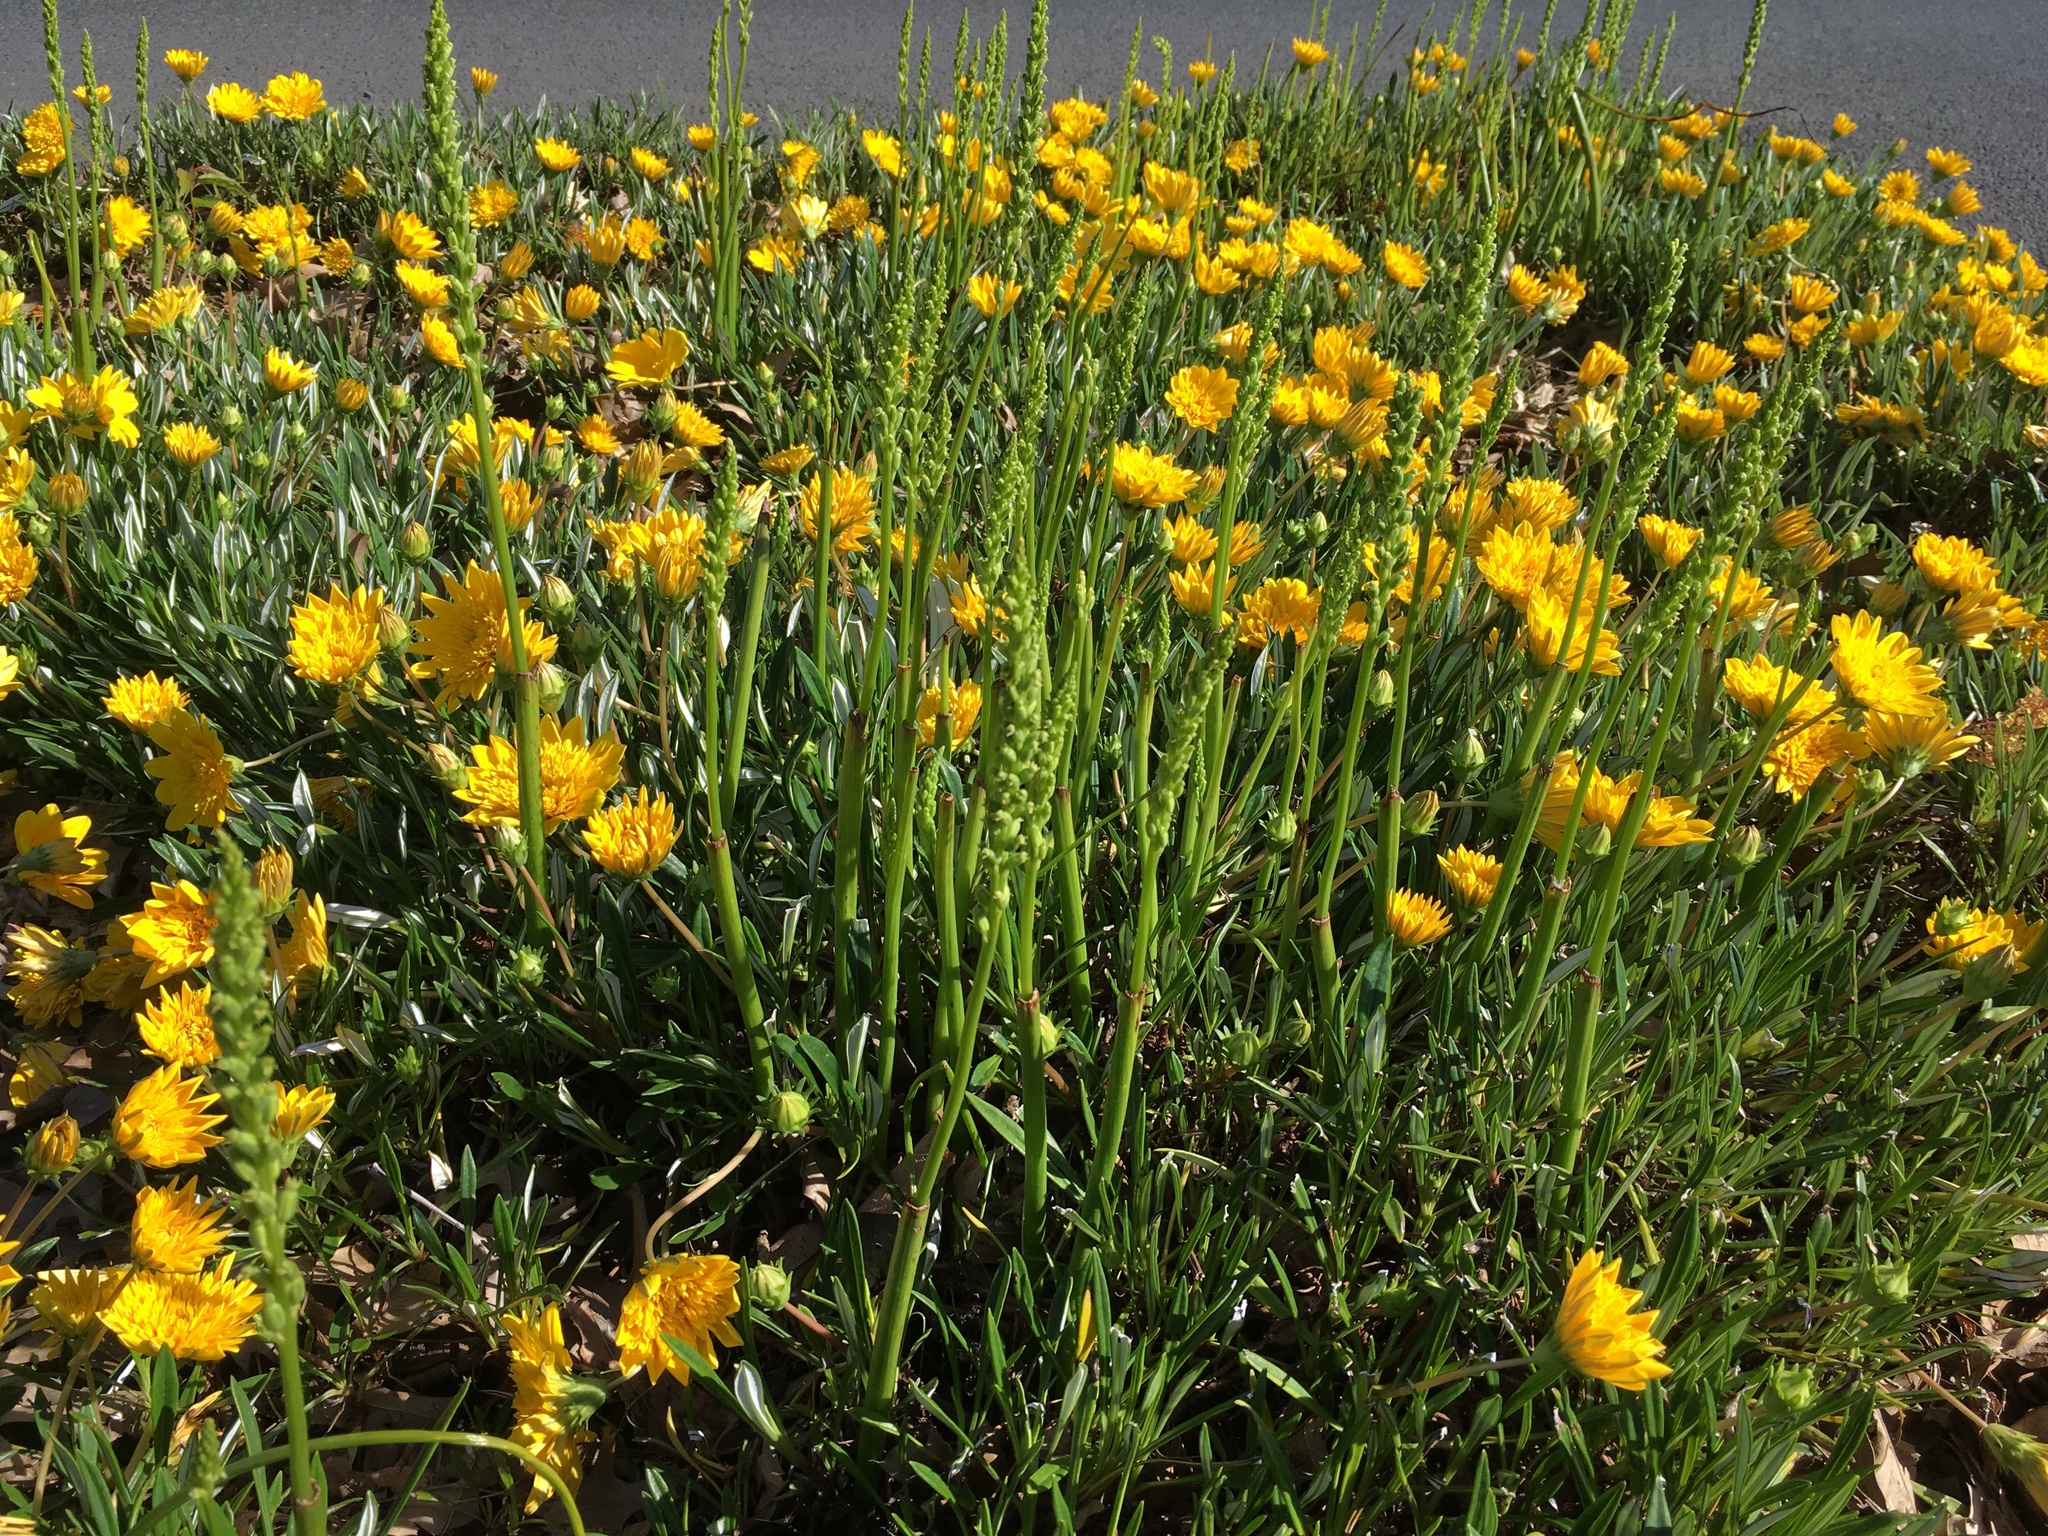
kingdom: Plantae
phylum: Tracheophyta
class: Liliopsida
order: Asparagales
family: Orchidaceae
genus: Microtis
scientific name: Microtis unifolia
